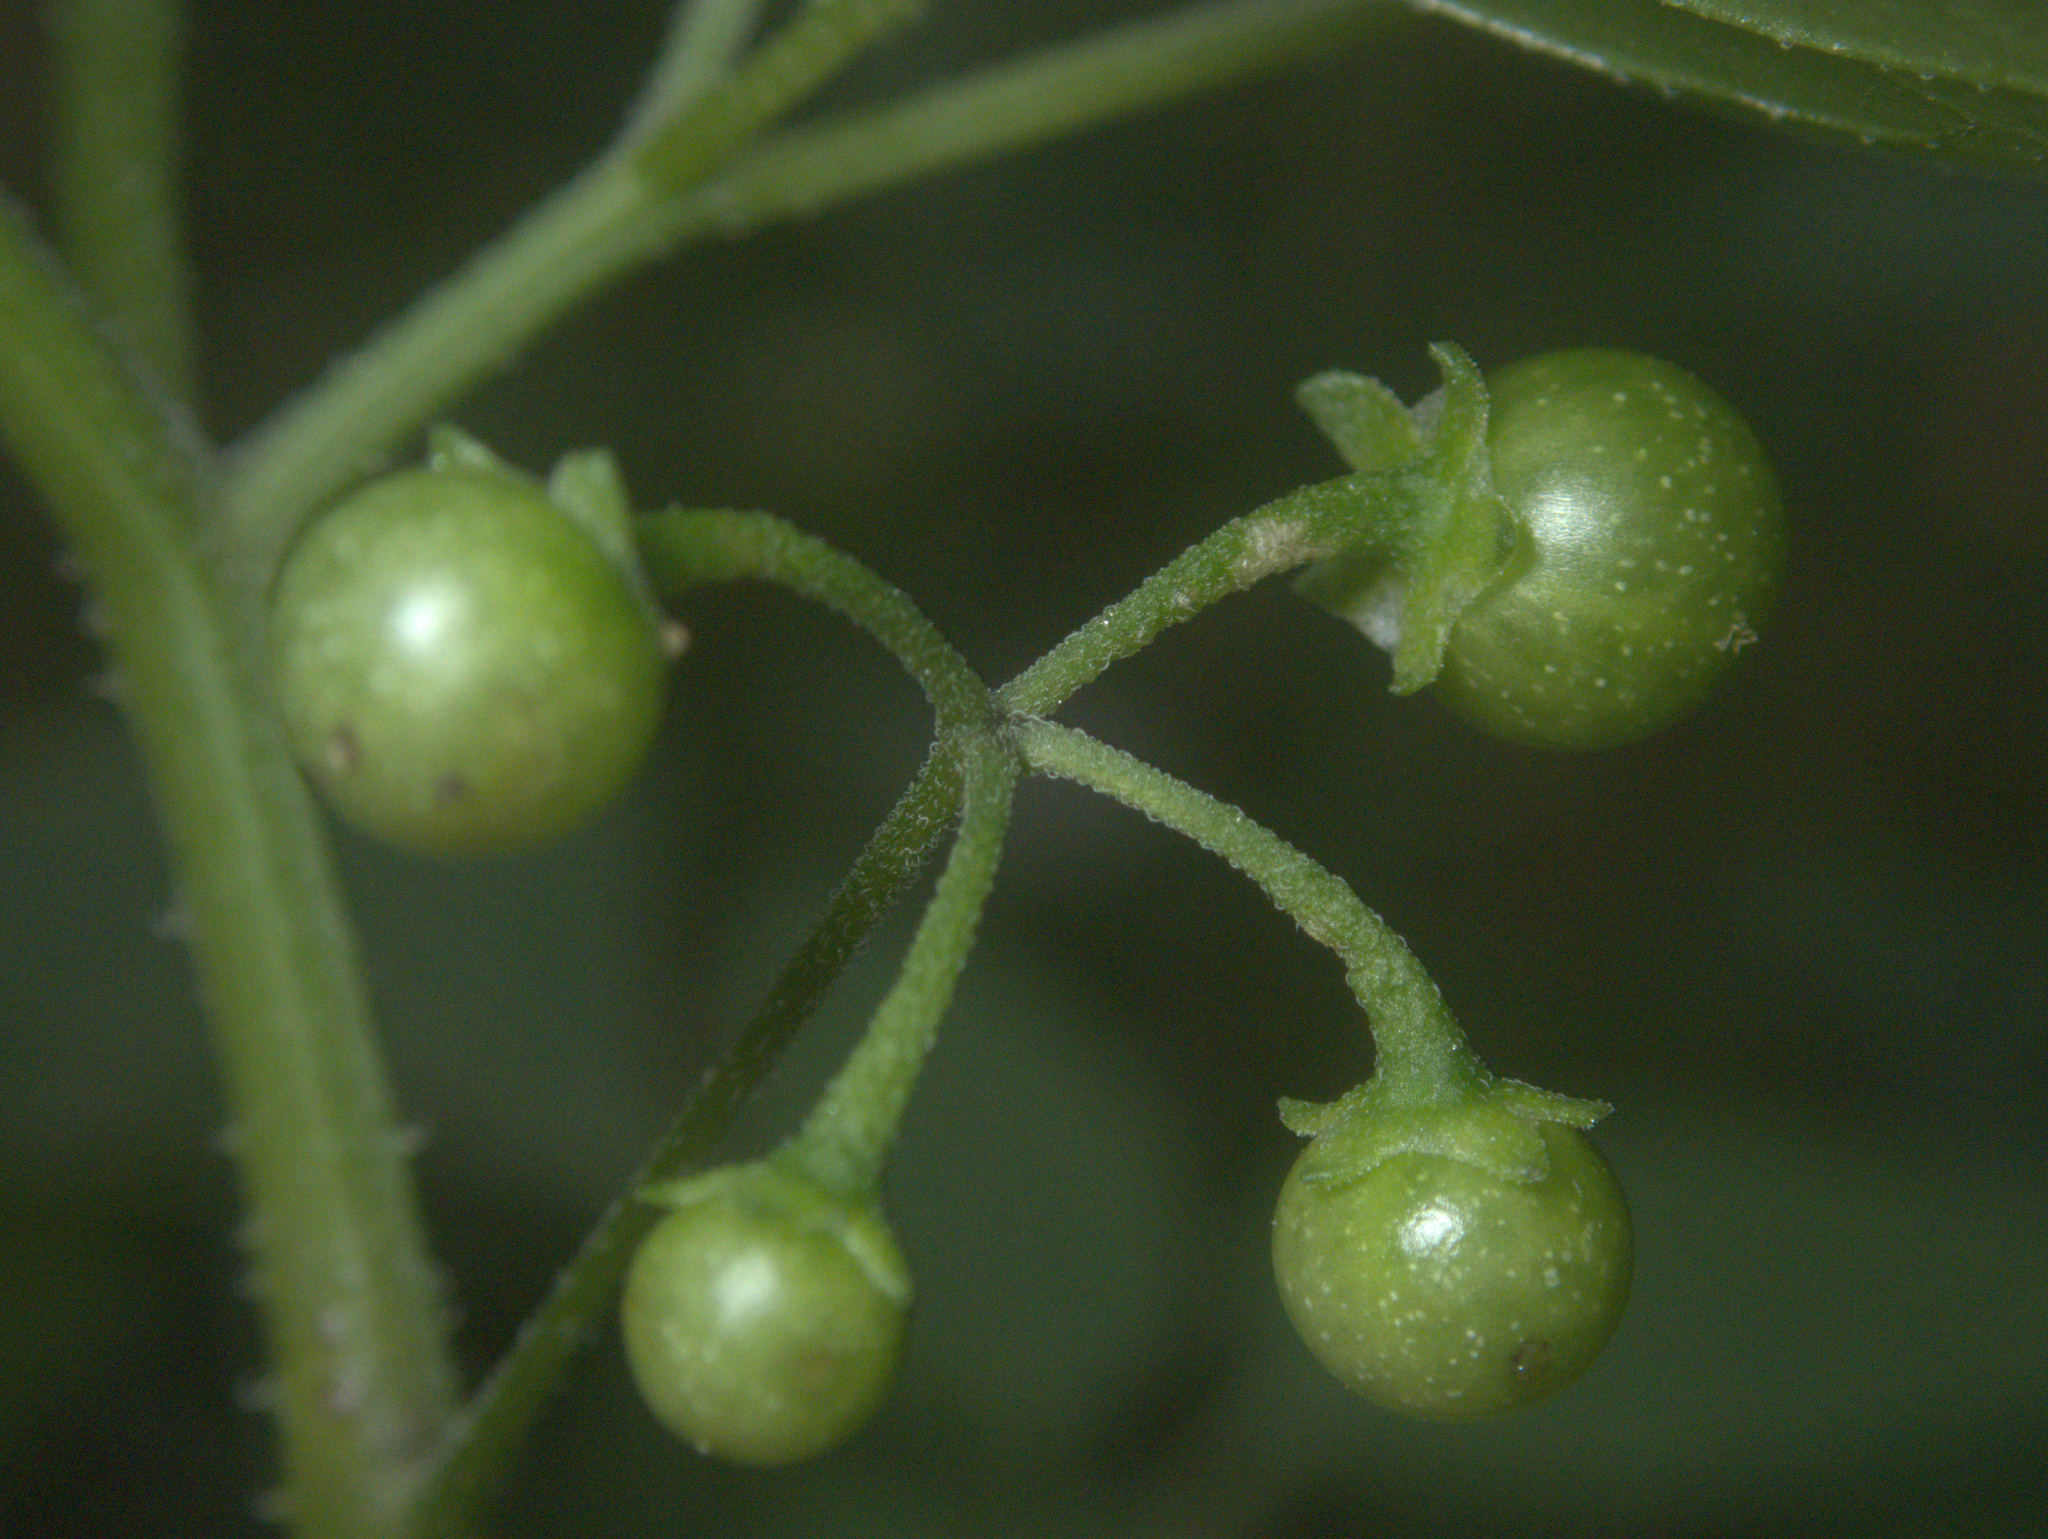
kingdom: Plantae
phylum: Tracheophyta
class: Magnoliopsida
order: Solanales
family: Solanaceae
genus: Solanum
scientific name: Solanum americanum
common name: American black nightshade
